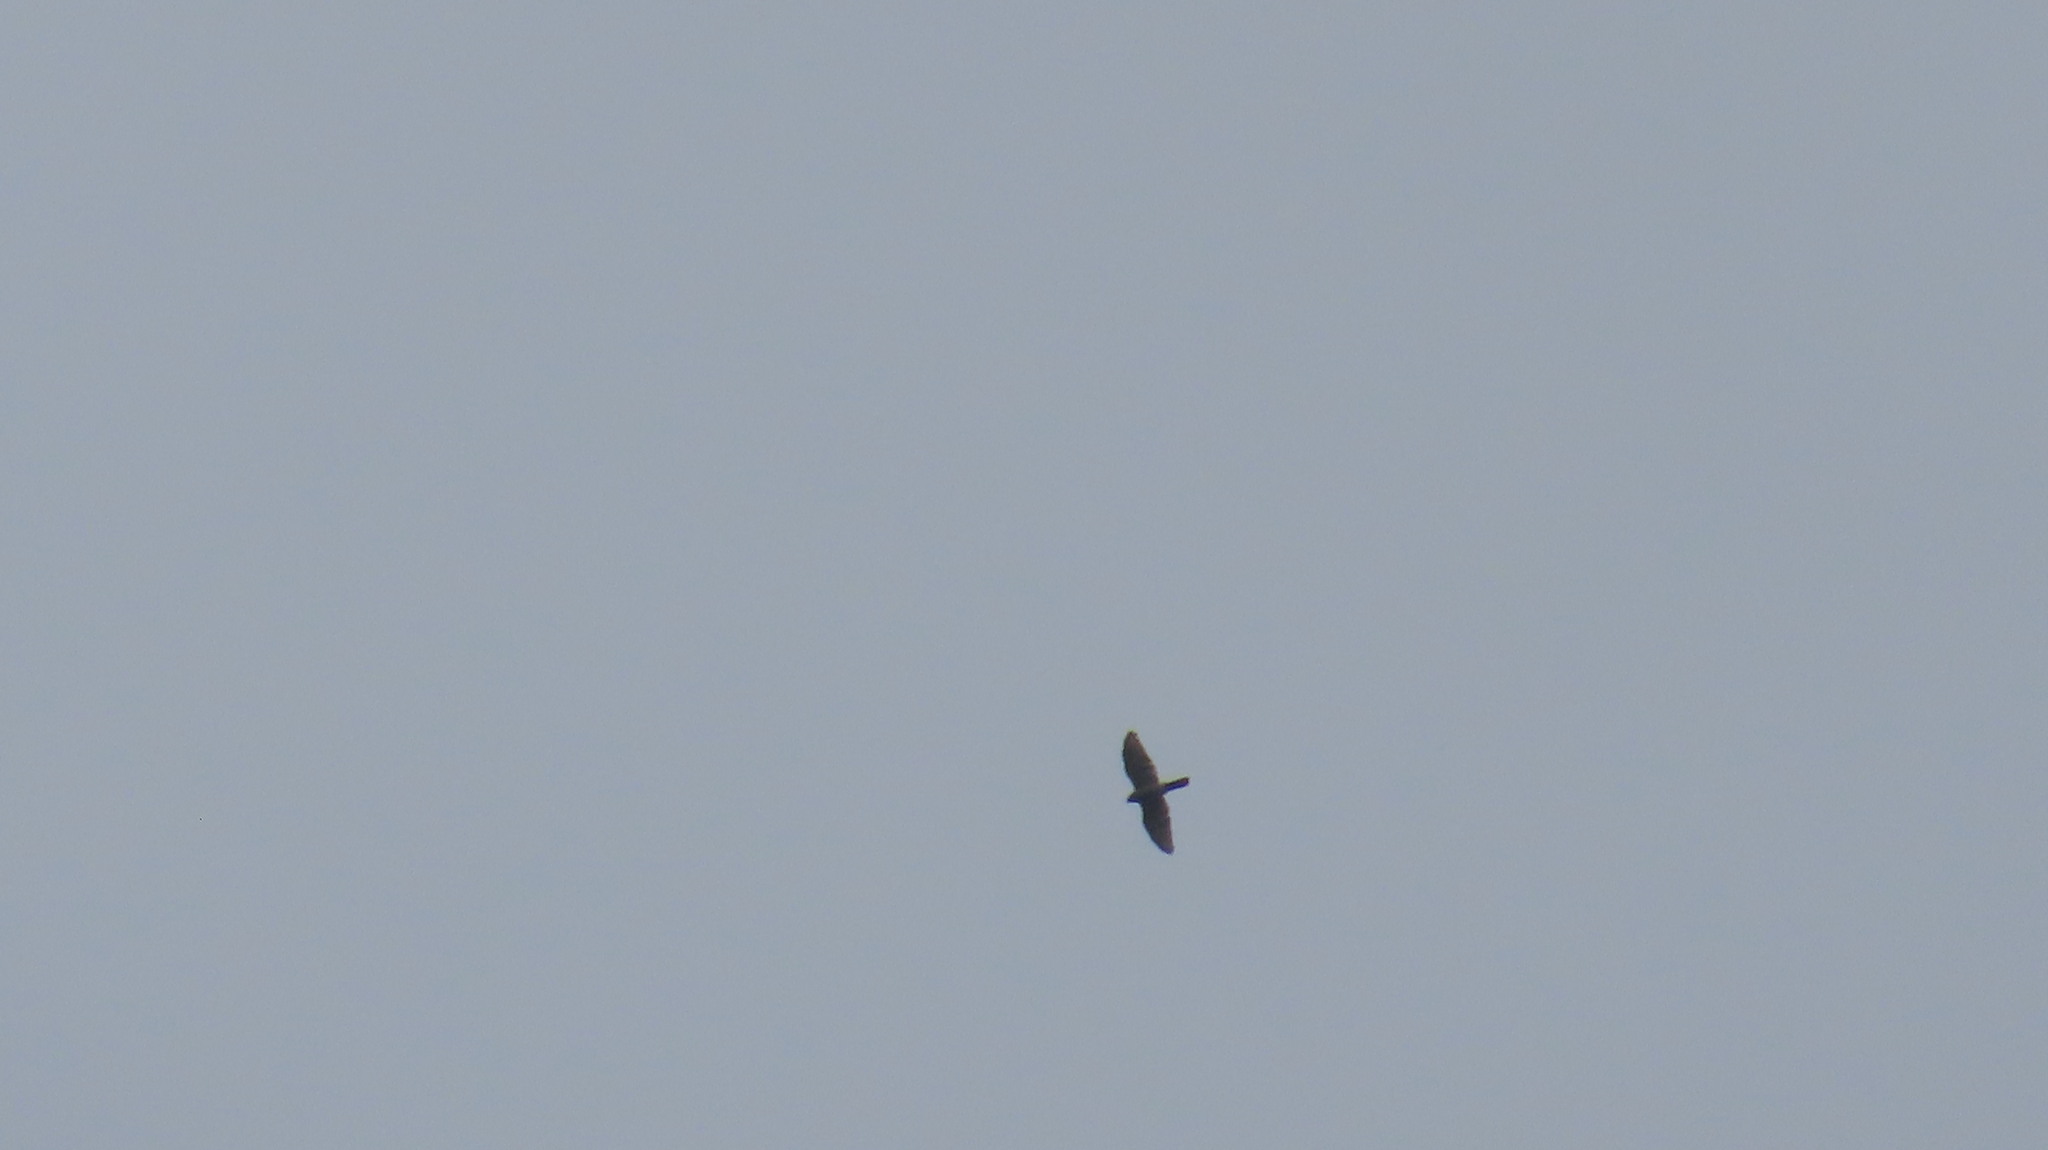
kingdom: Animalia
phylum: Chordata
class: Aves
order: Accipitriformes
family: Accipitridae
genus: Accipiter
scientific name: Accipiter badius
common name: Shikra
